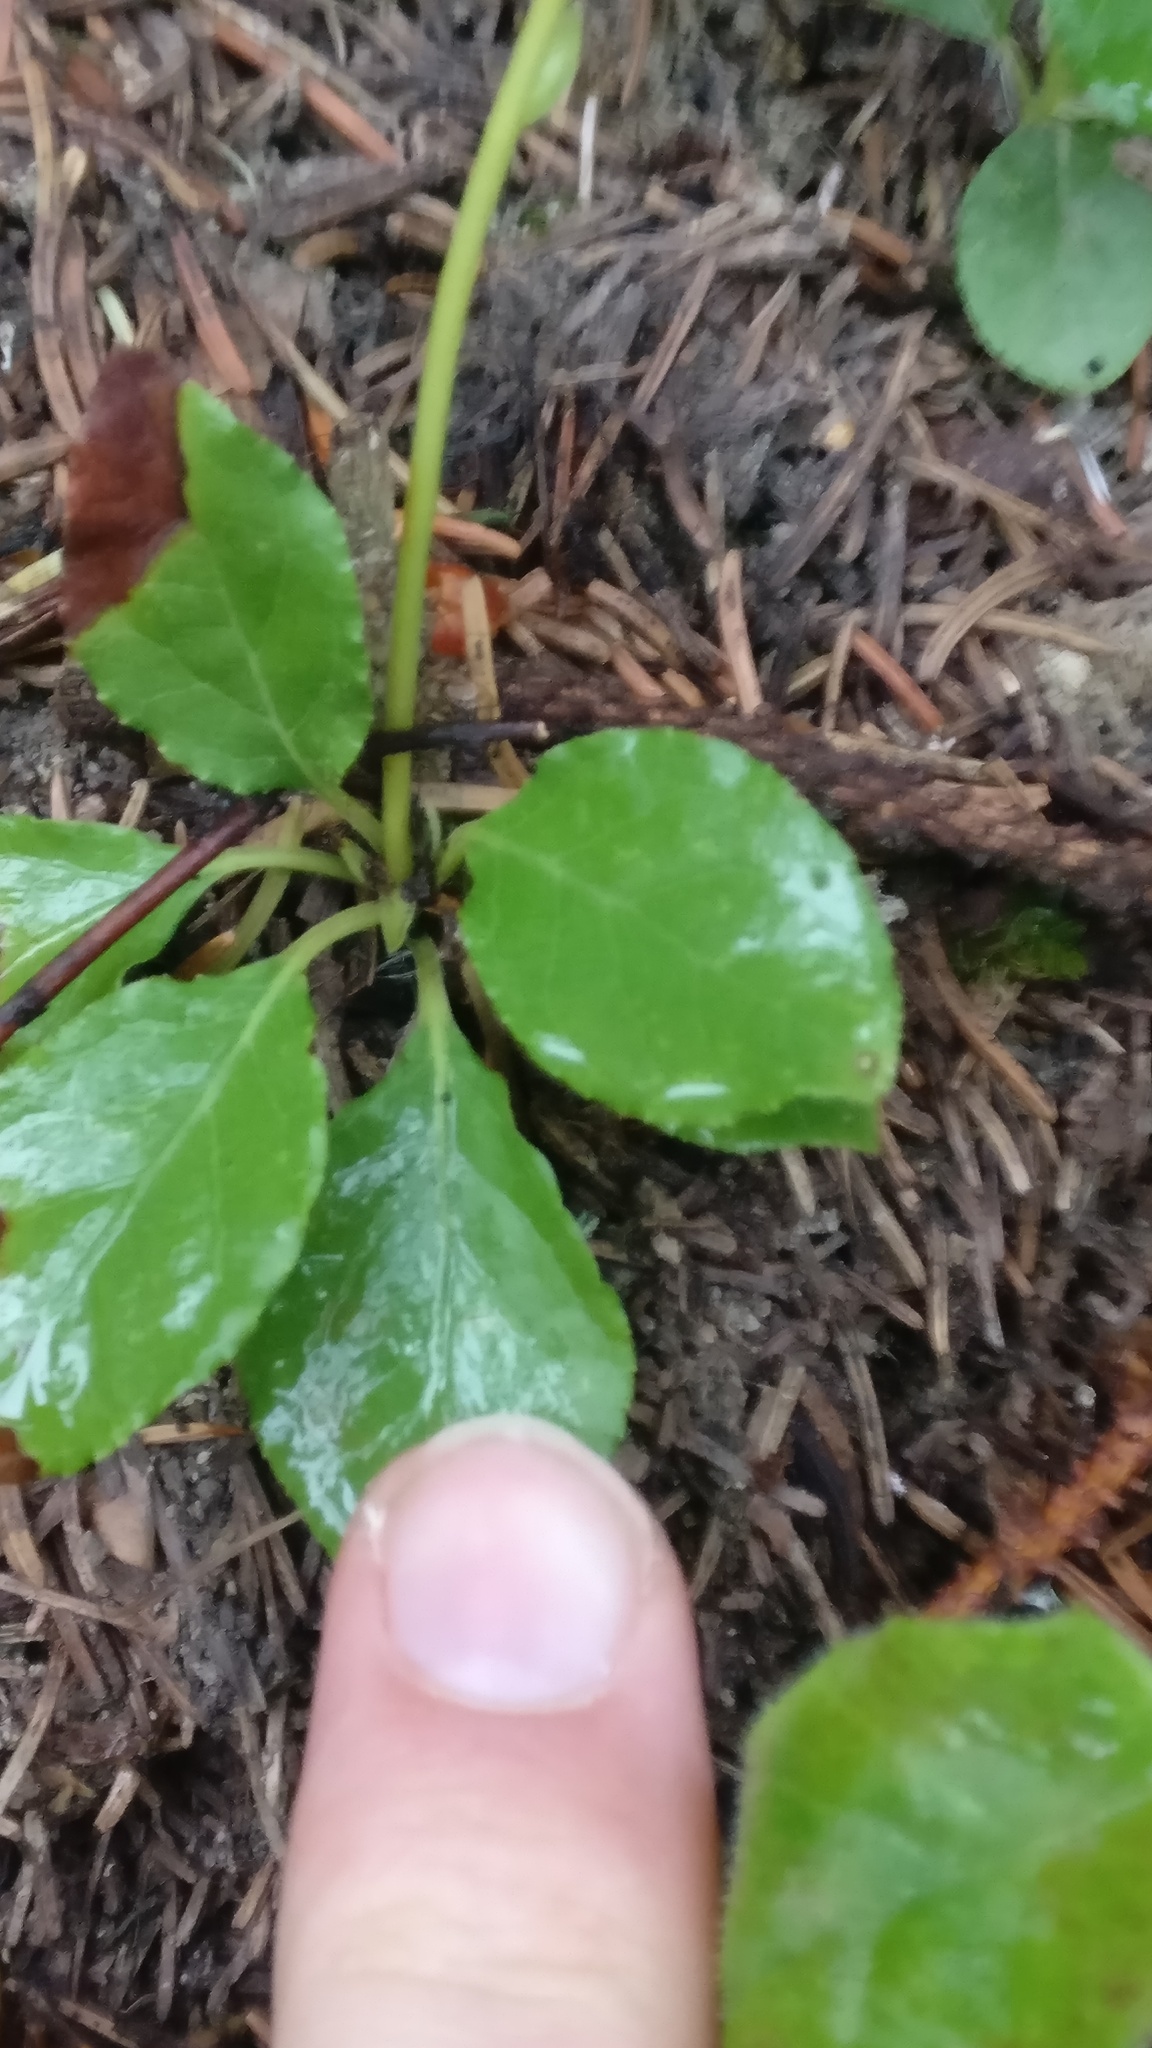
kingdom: Plantae
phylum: Tracheophyta
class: Magnoliopsida
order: Ericales
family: Ericaceae
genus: Orthilia
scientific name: Orthilia secunda
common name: One-sided orthilia
